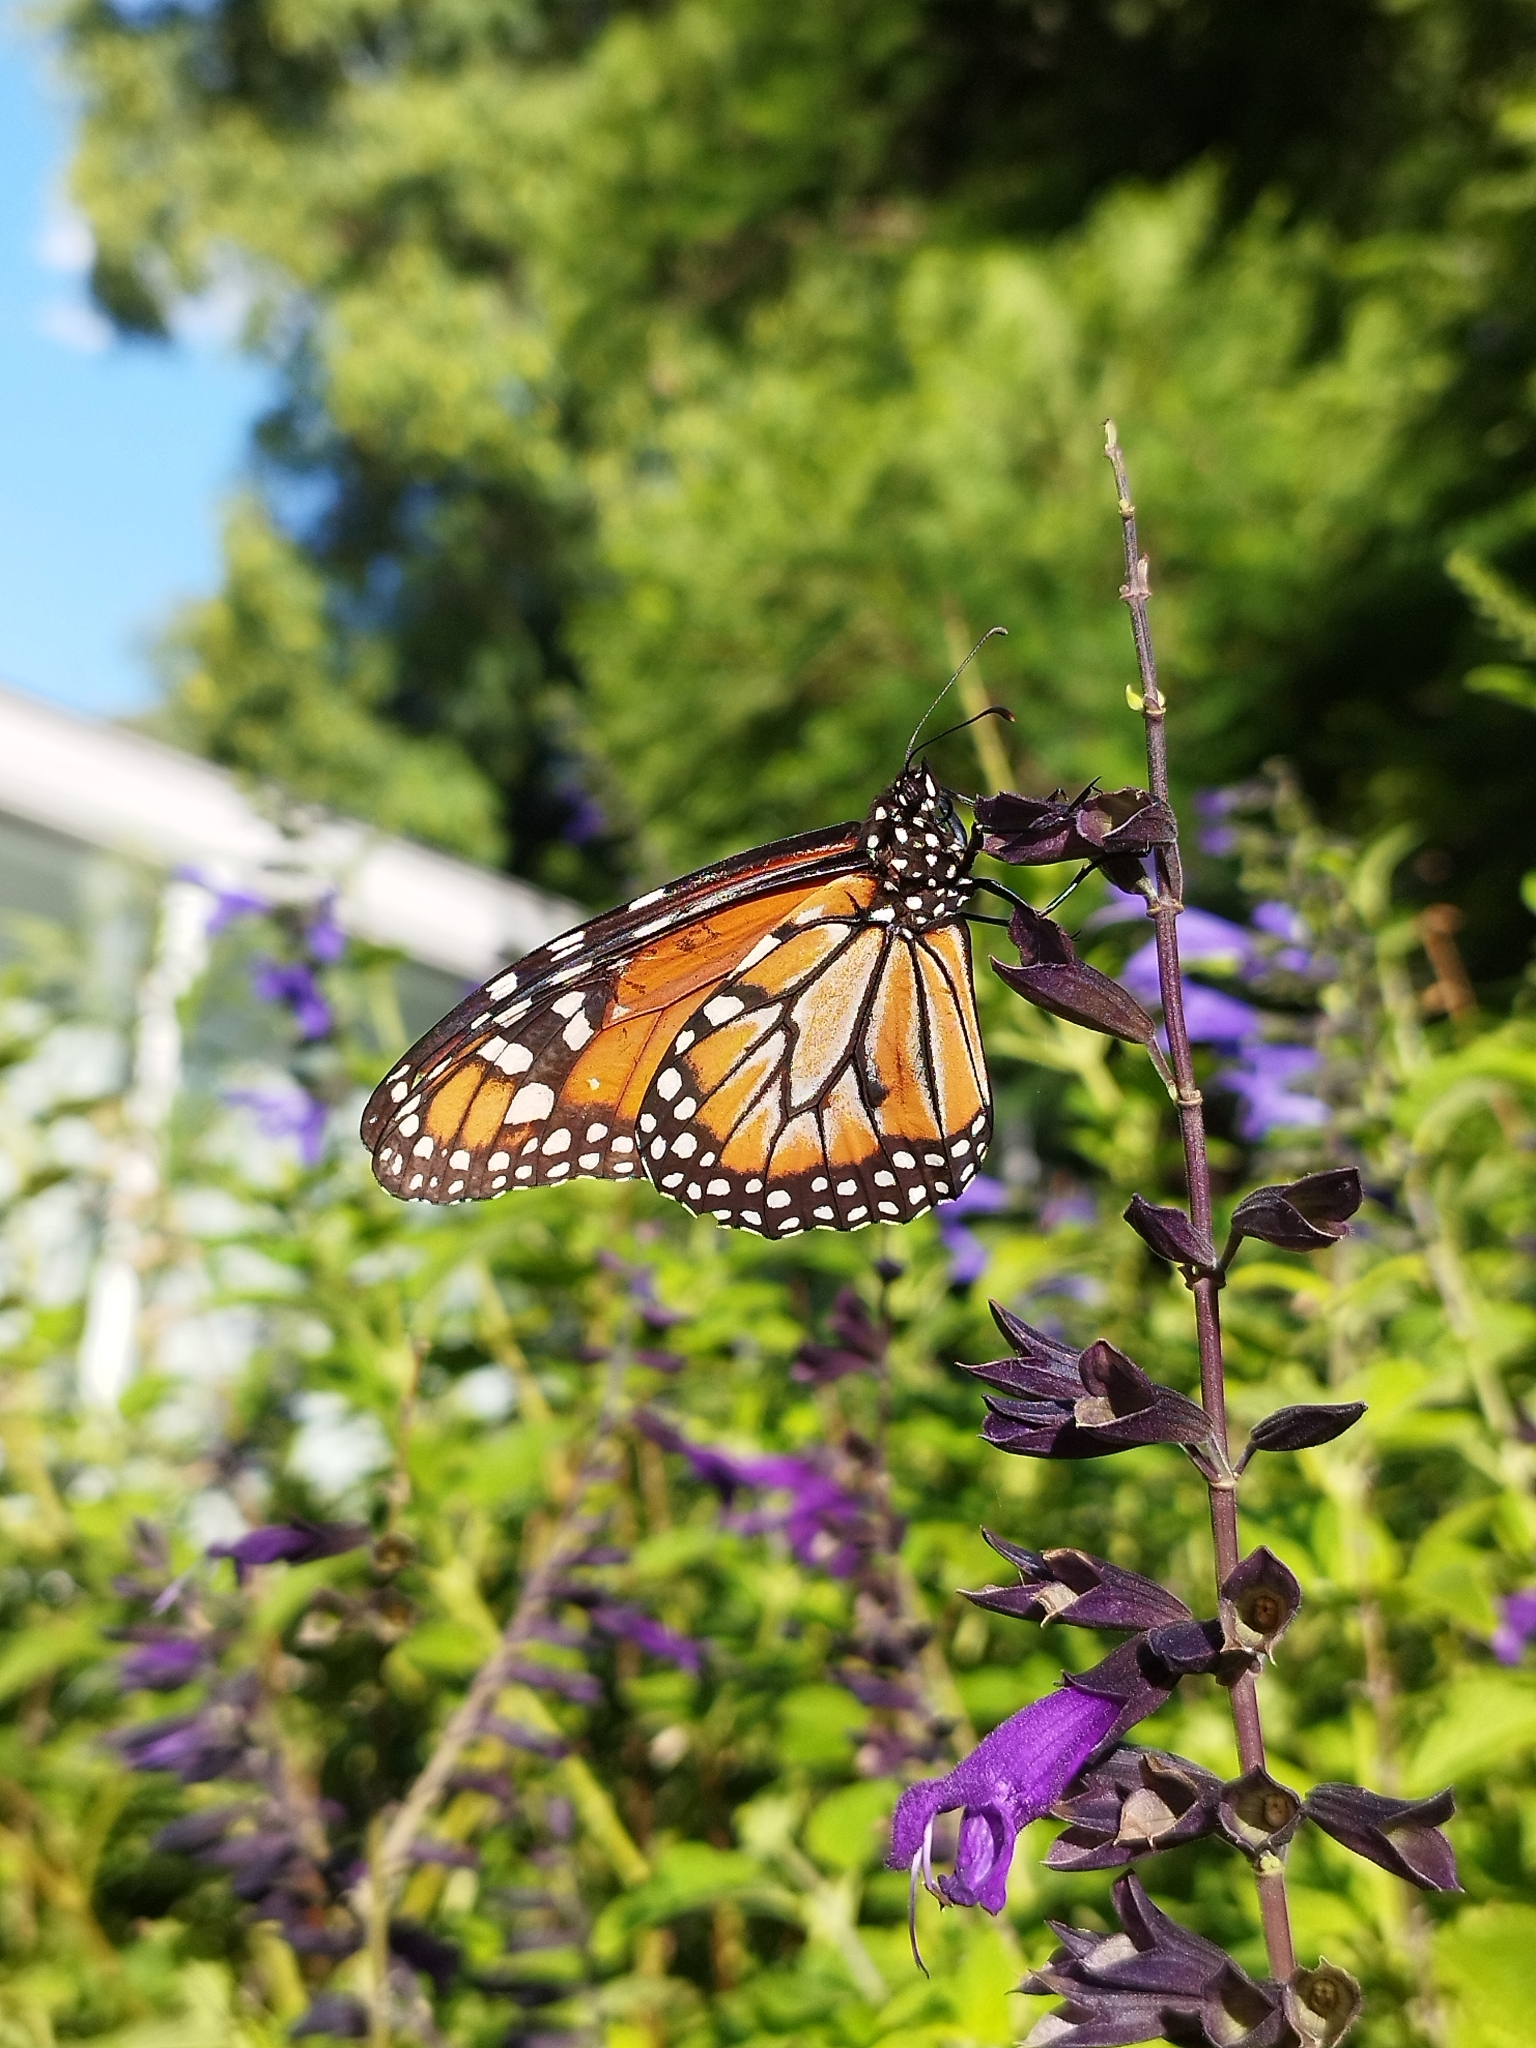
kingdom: Animalia
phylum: Arthropoda
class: Insecta
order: Lepidoptera
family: Nymphalidae
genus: Danaus
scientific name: Danaus erippus
